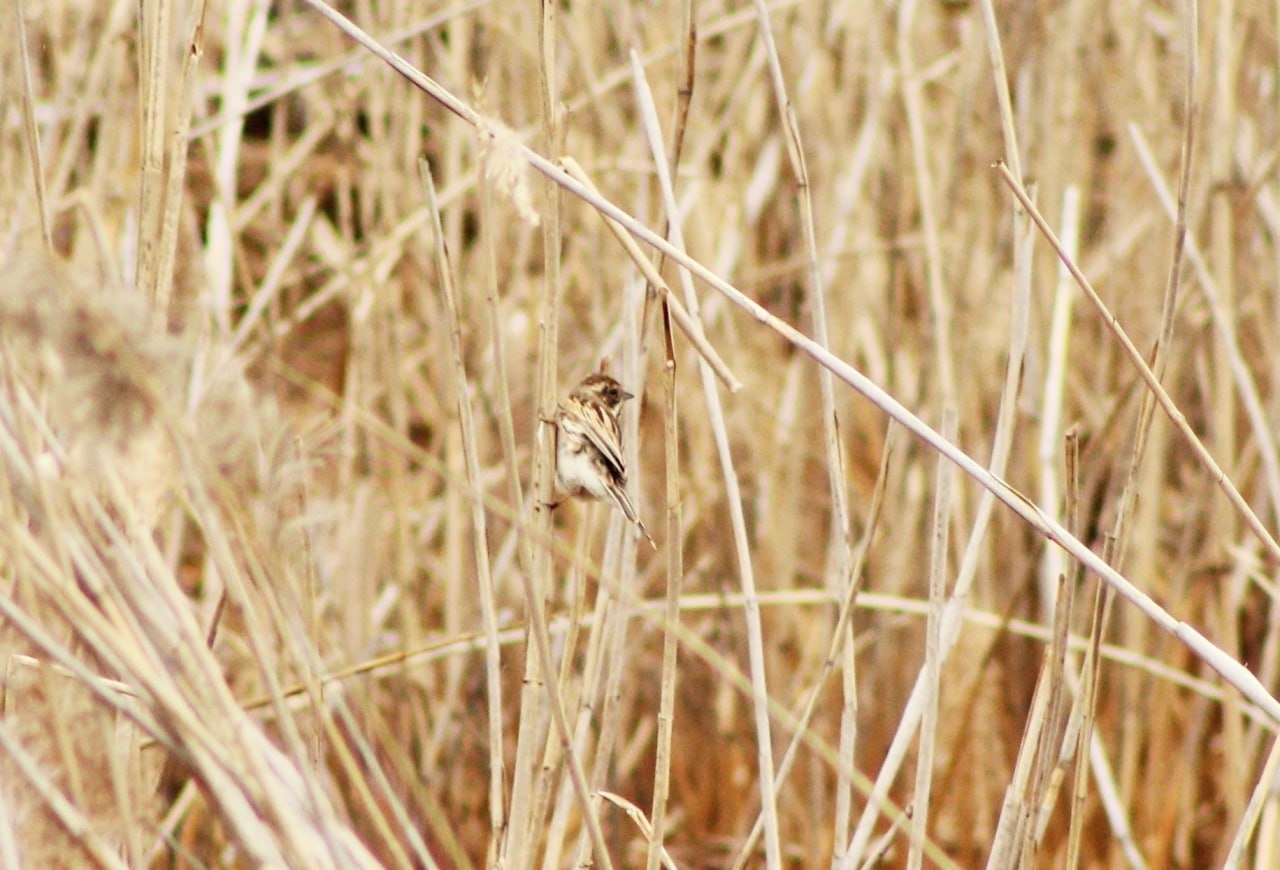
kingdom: Animalia
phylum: Chordata
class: Aves
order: Passeriformes
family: Emberizidae
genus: Emberiza
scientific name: Emberiza schoeniclus
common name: Reed bunting
